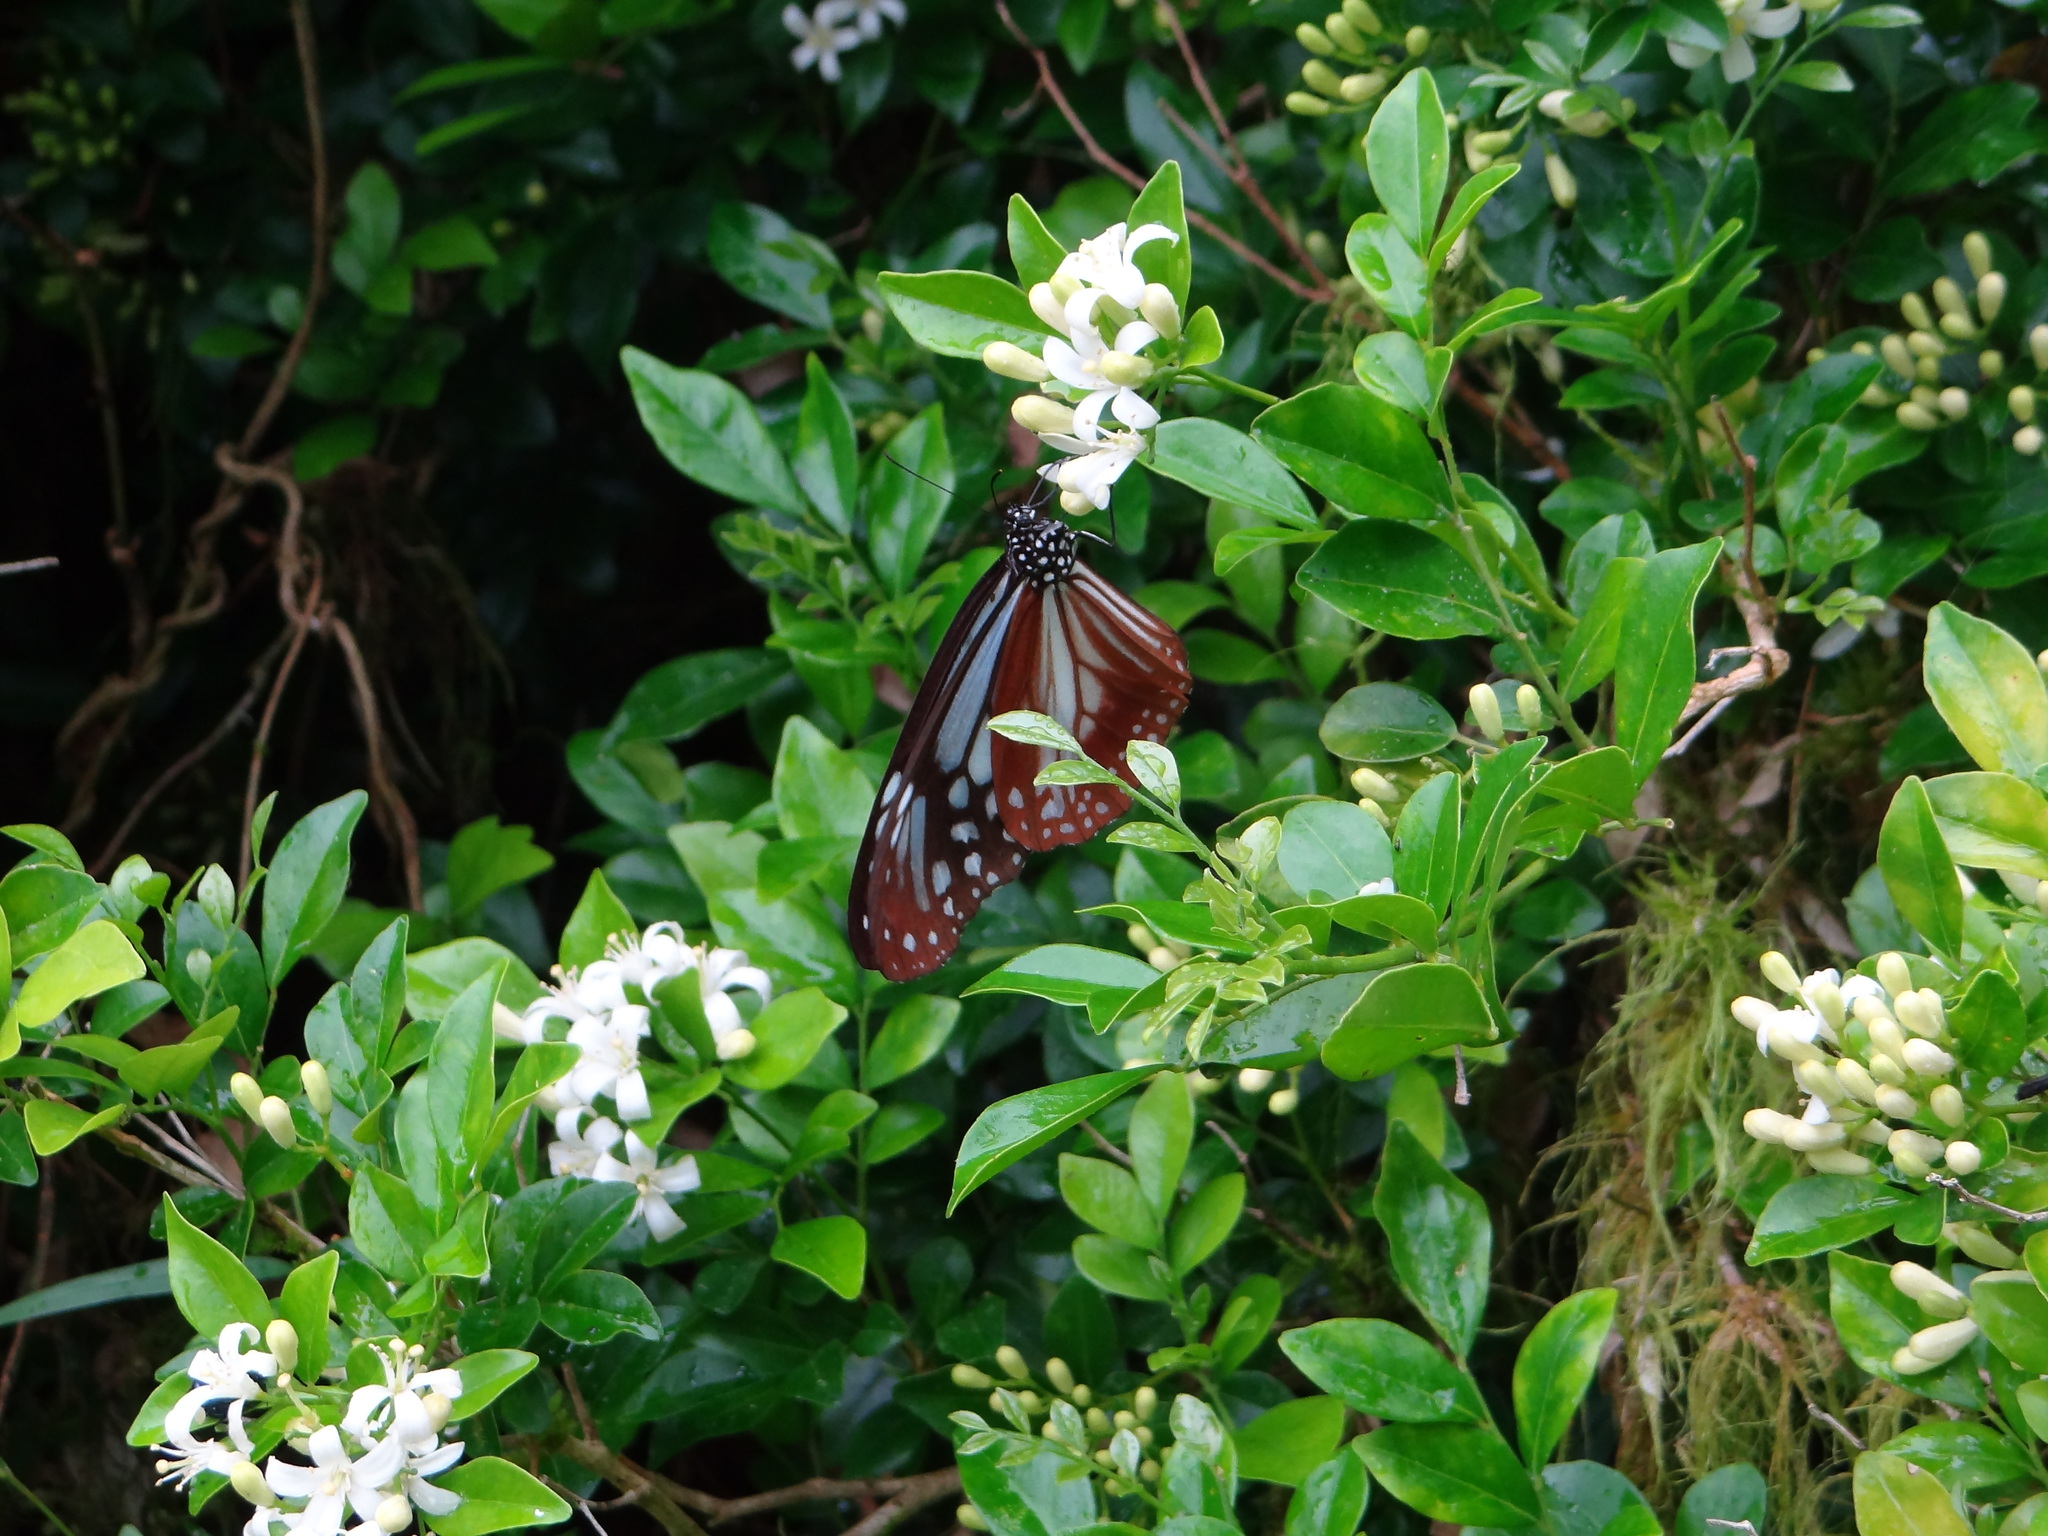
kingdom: Animalia
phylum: Arthropoda
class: Insecta
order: Lepidoptera
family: Nymphalidae
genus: Parantica
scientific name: Parantica sita
